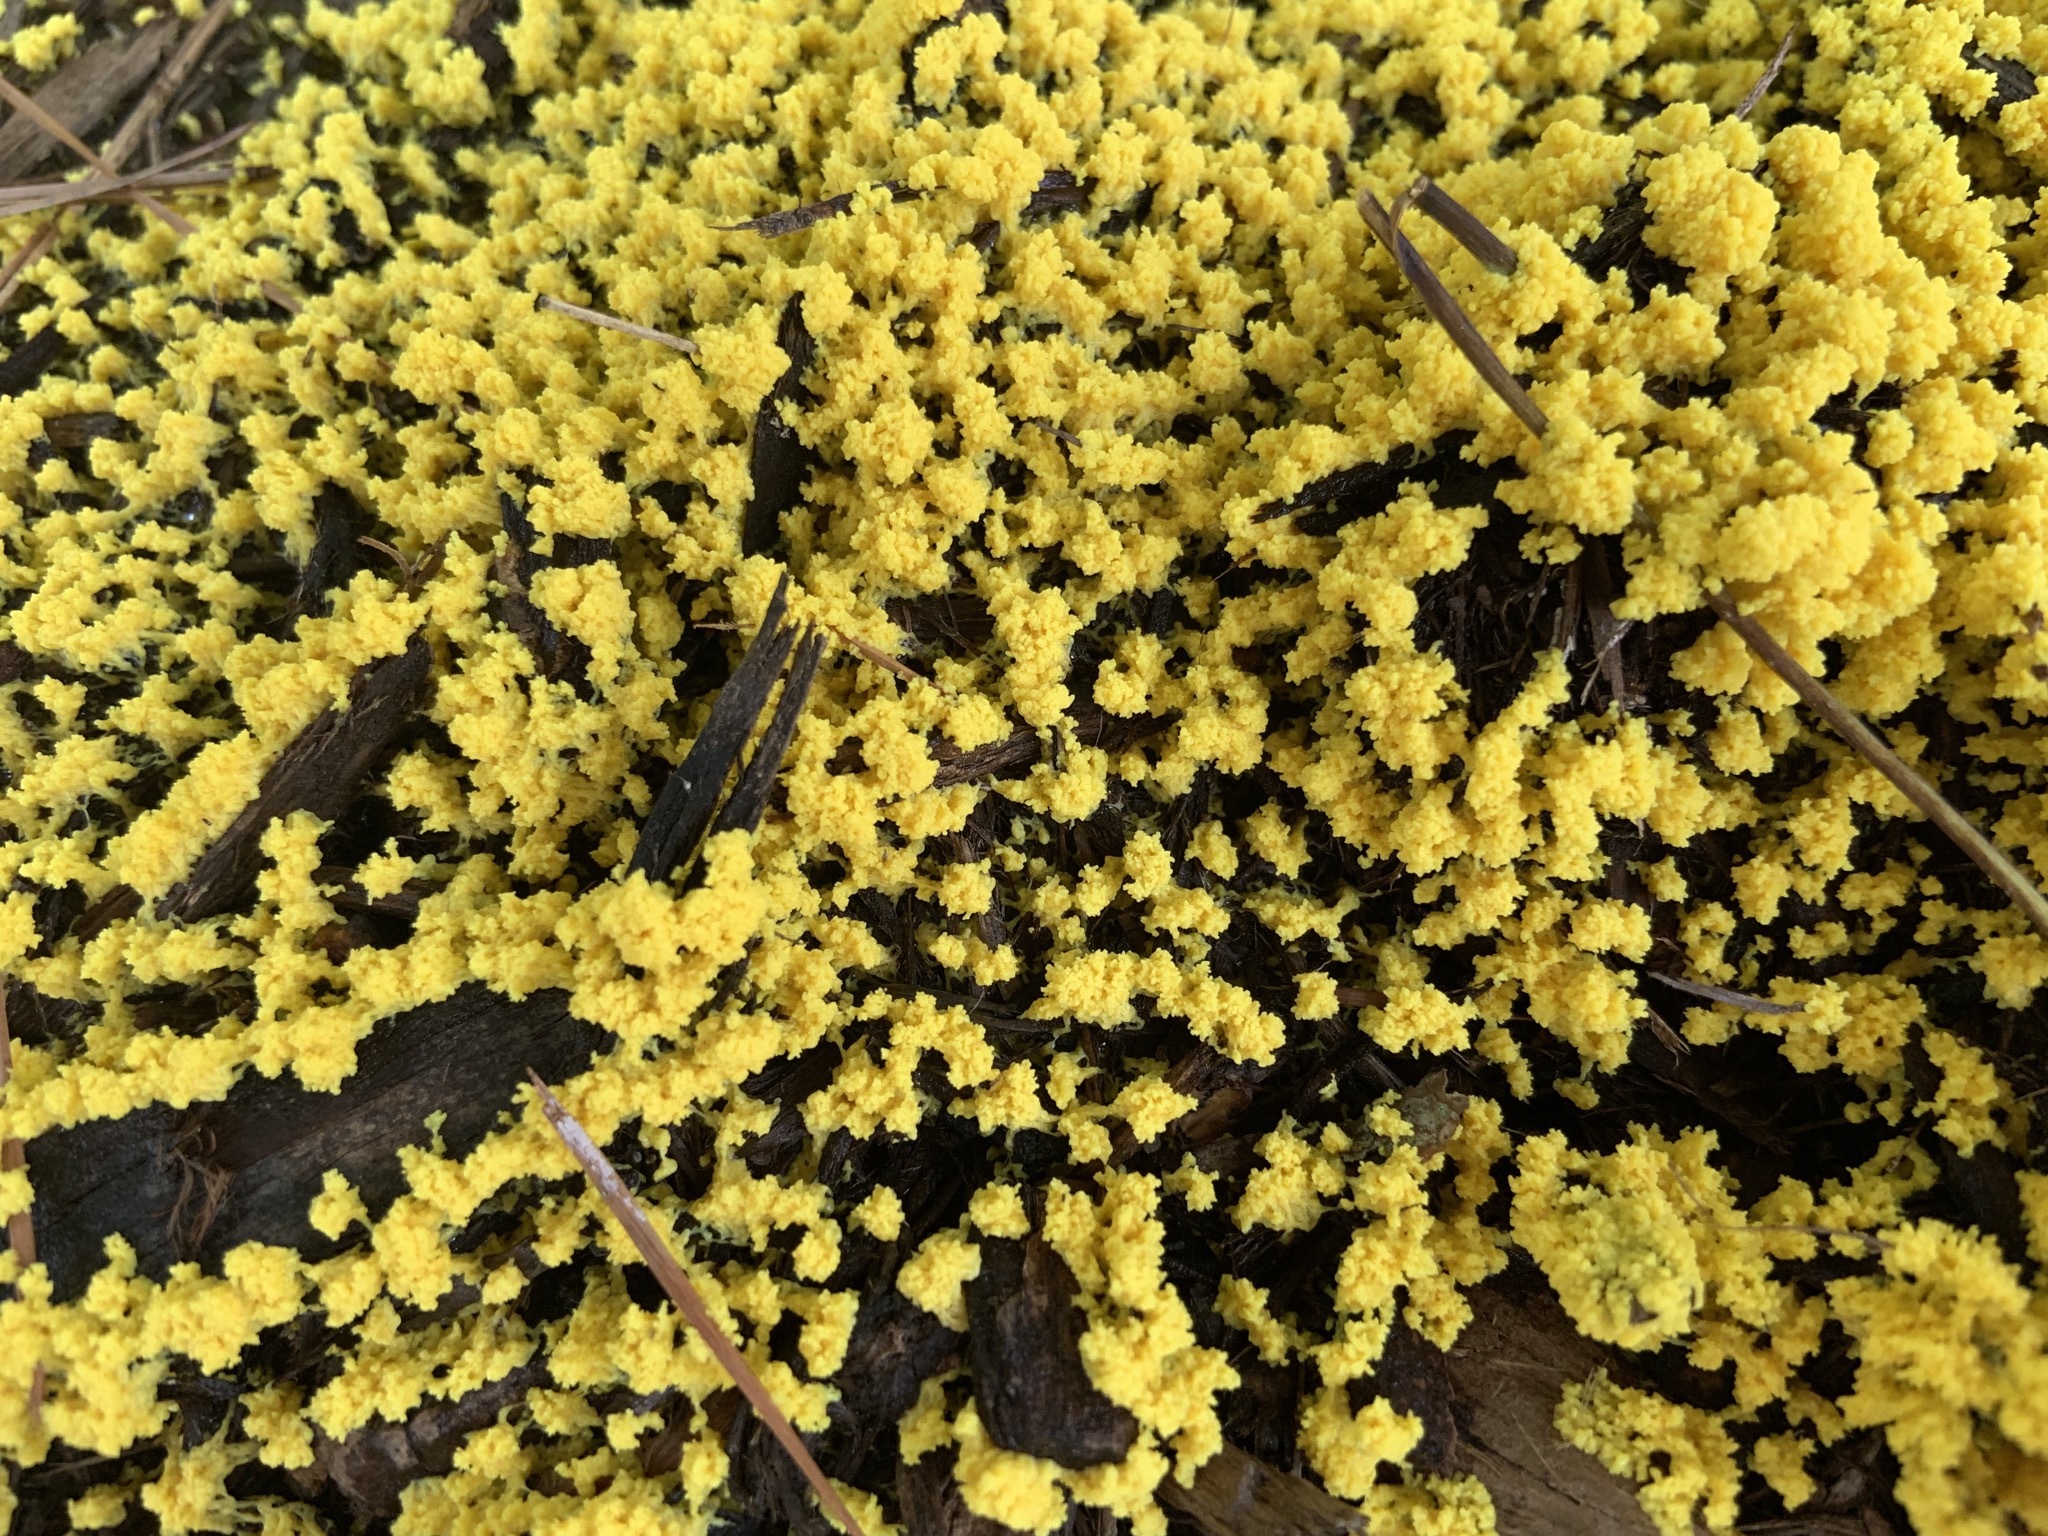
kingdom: Protozoa
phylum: Mycetozoa
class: Myxomycetes
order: Physarales
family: Physaraceae
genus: Fuligo
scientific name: Fuligo septica
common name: Dog vomit slime mold
